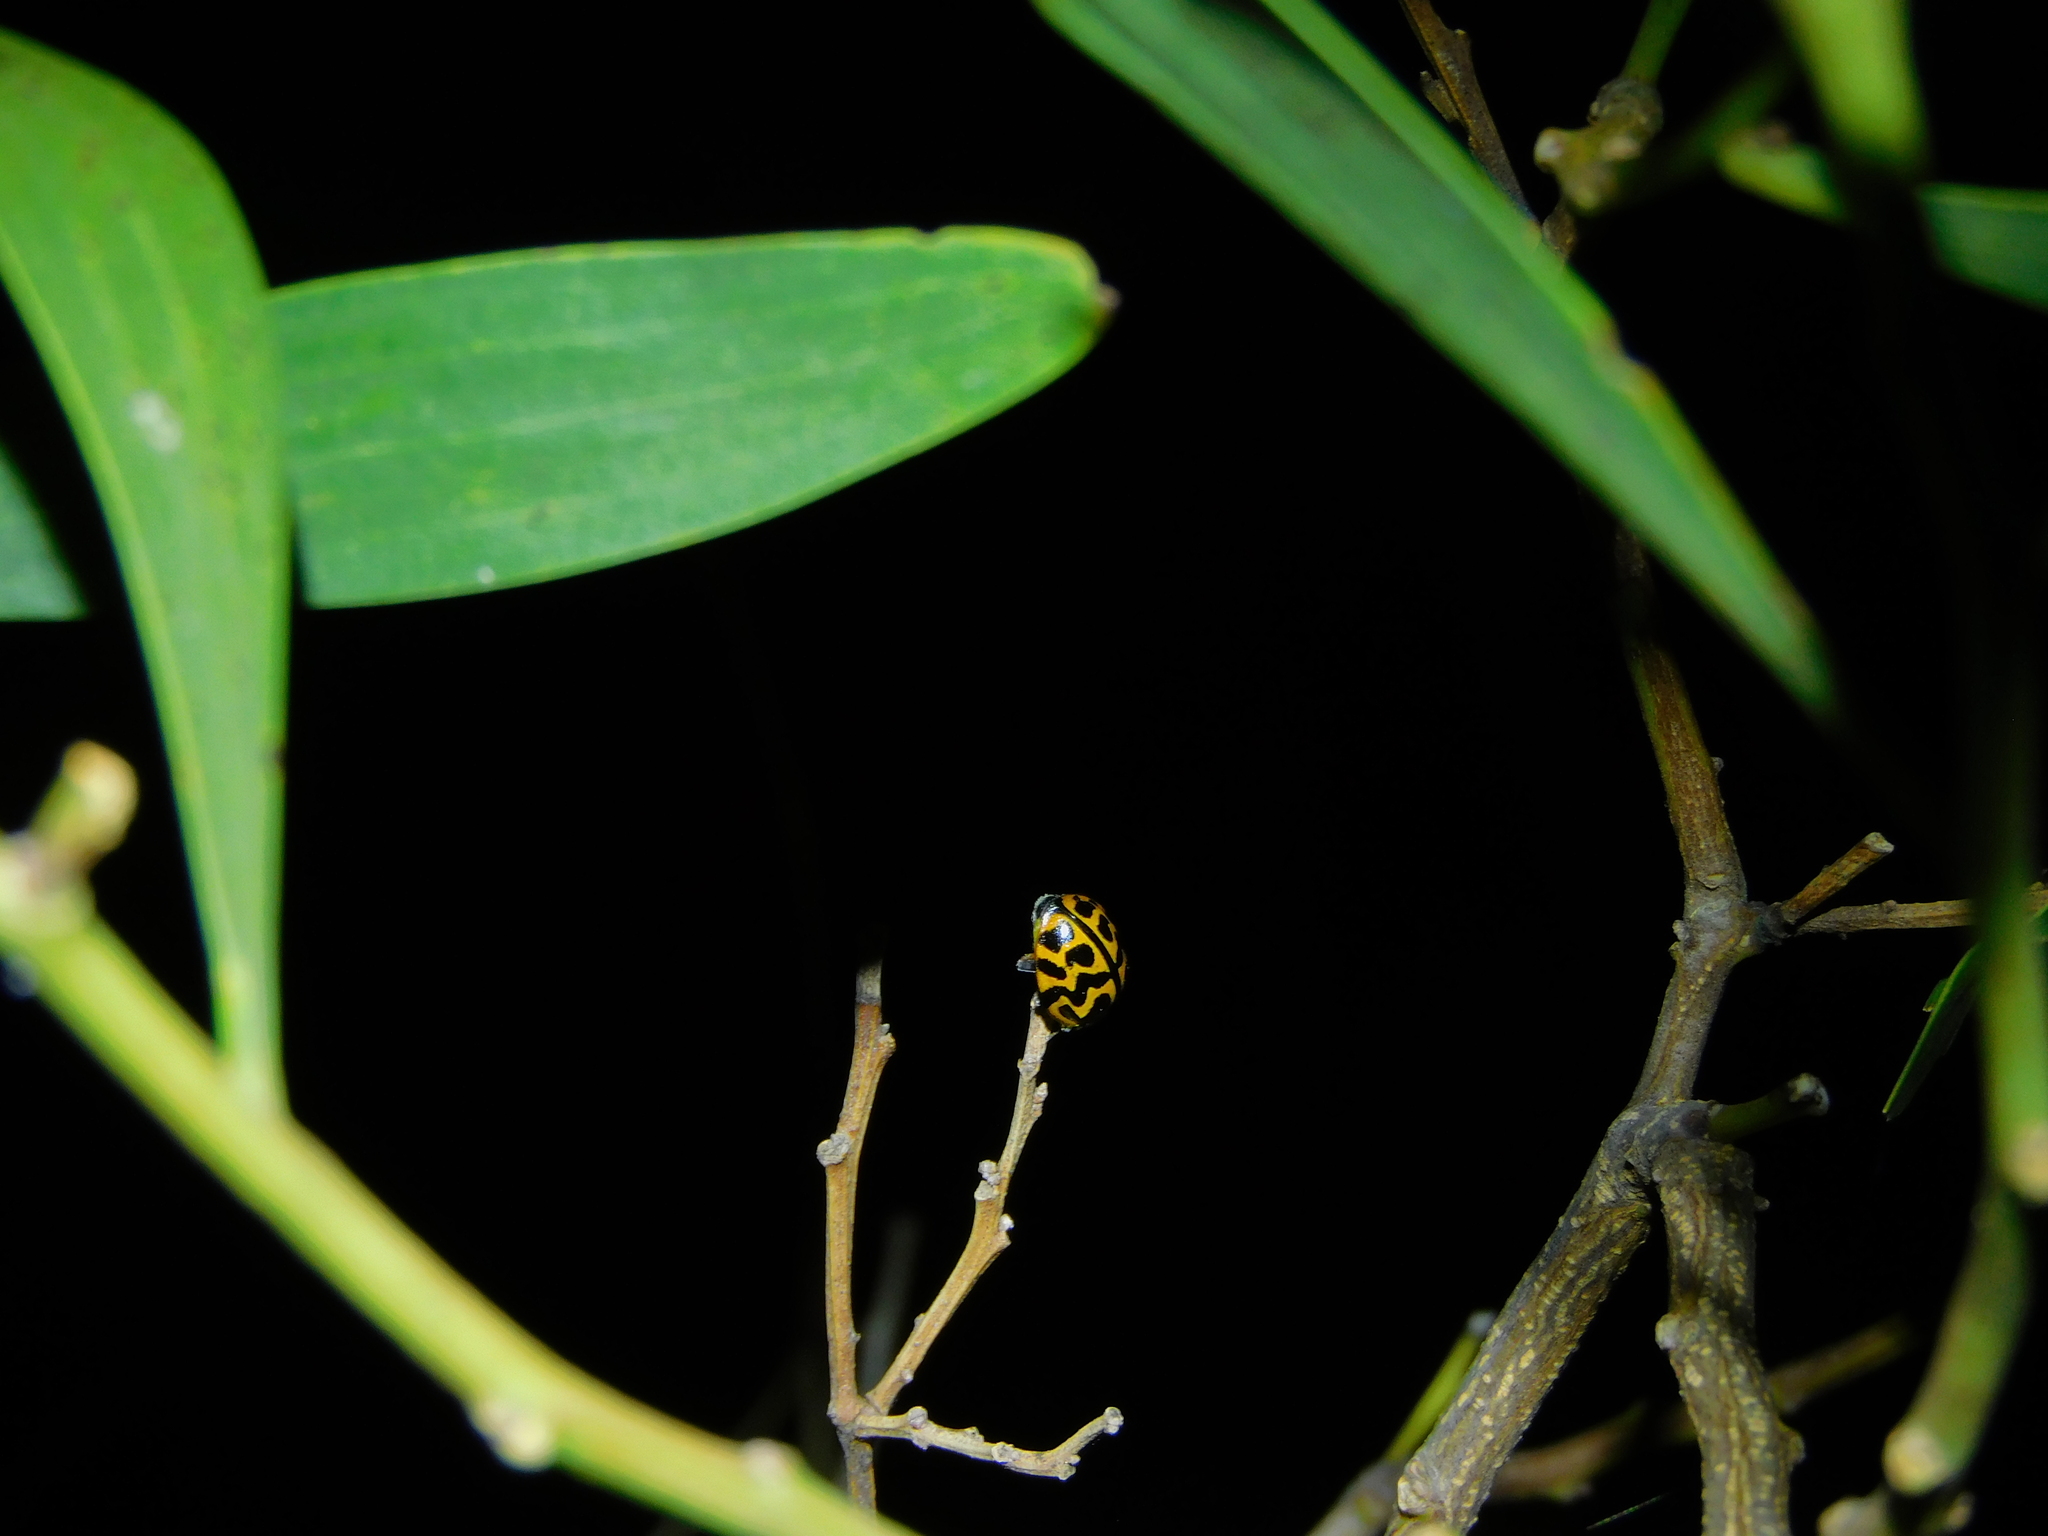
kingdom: Animalia
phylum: Arthropoda
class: Insecta
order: Coleoptera
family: Coccinellidae
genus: Cleobora
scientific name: Cleobora
